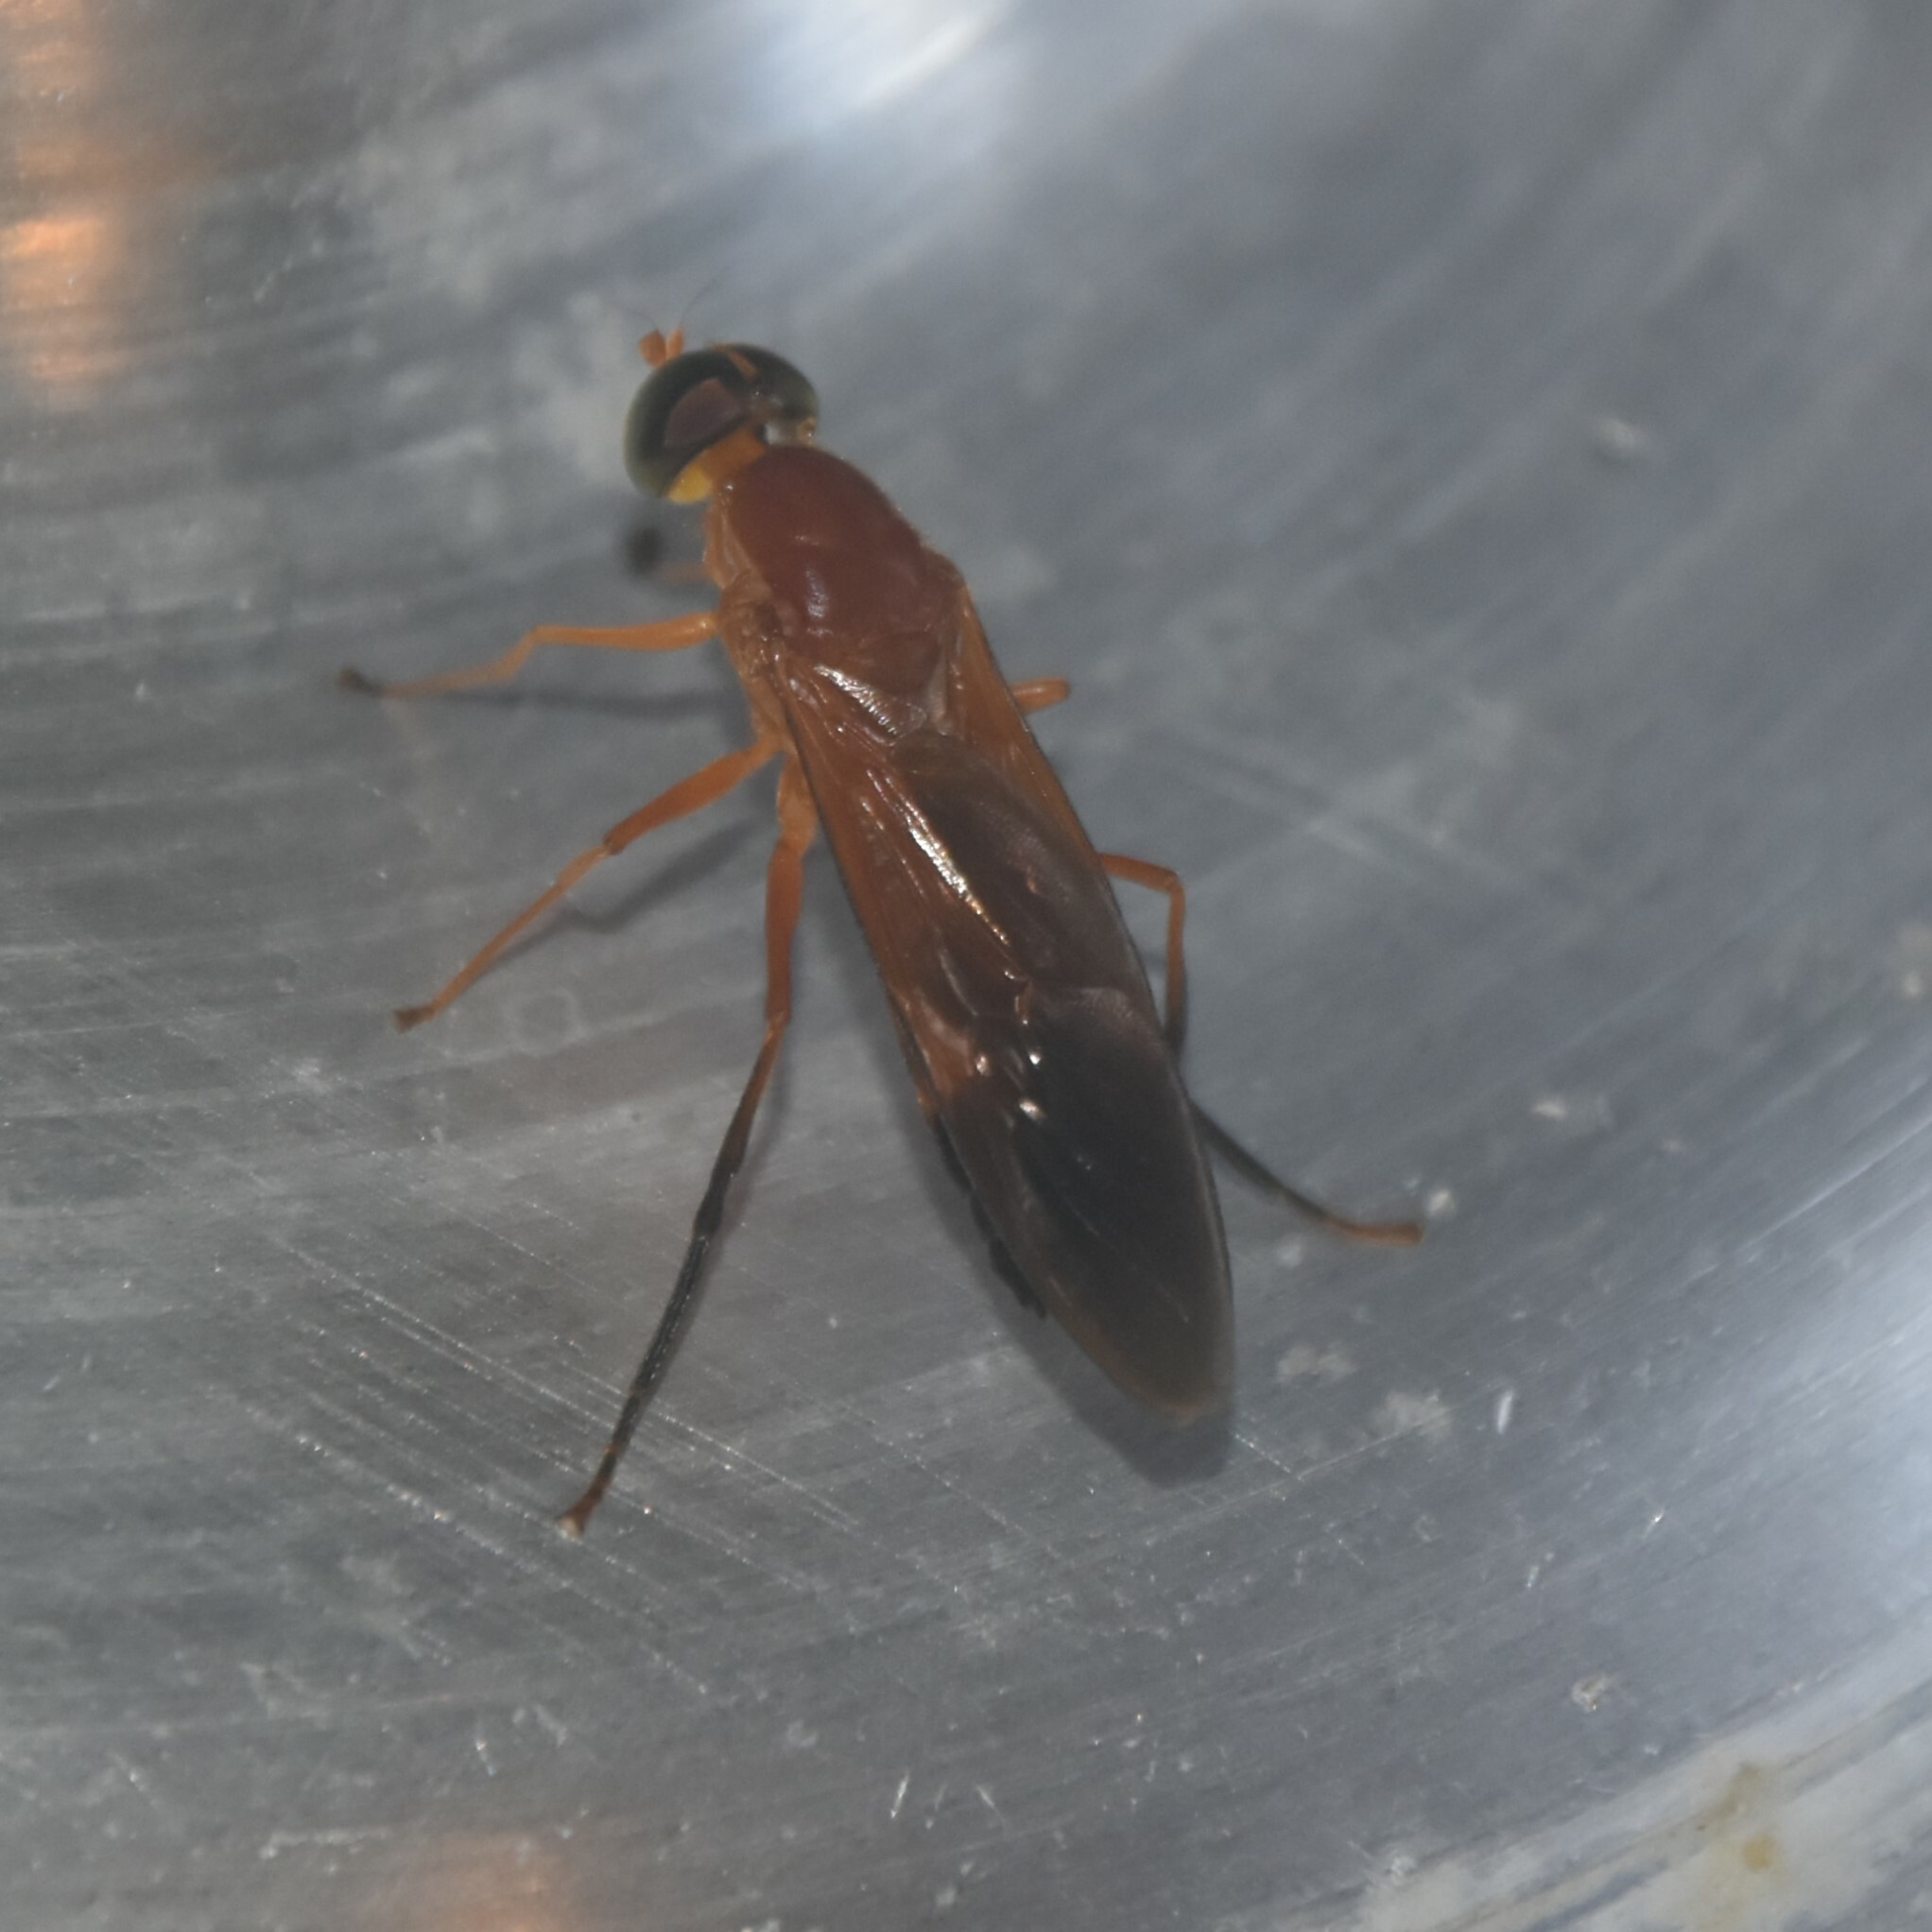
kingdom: Animalia
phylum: Arthropoda
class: Insecta
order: Diptera
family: Stratiomyidae
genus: Ptecticus
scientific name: Ptecticus aurifer
